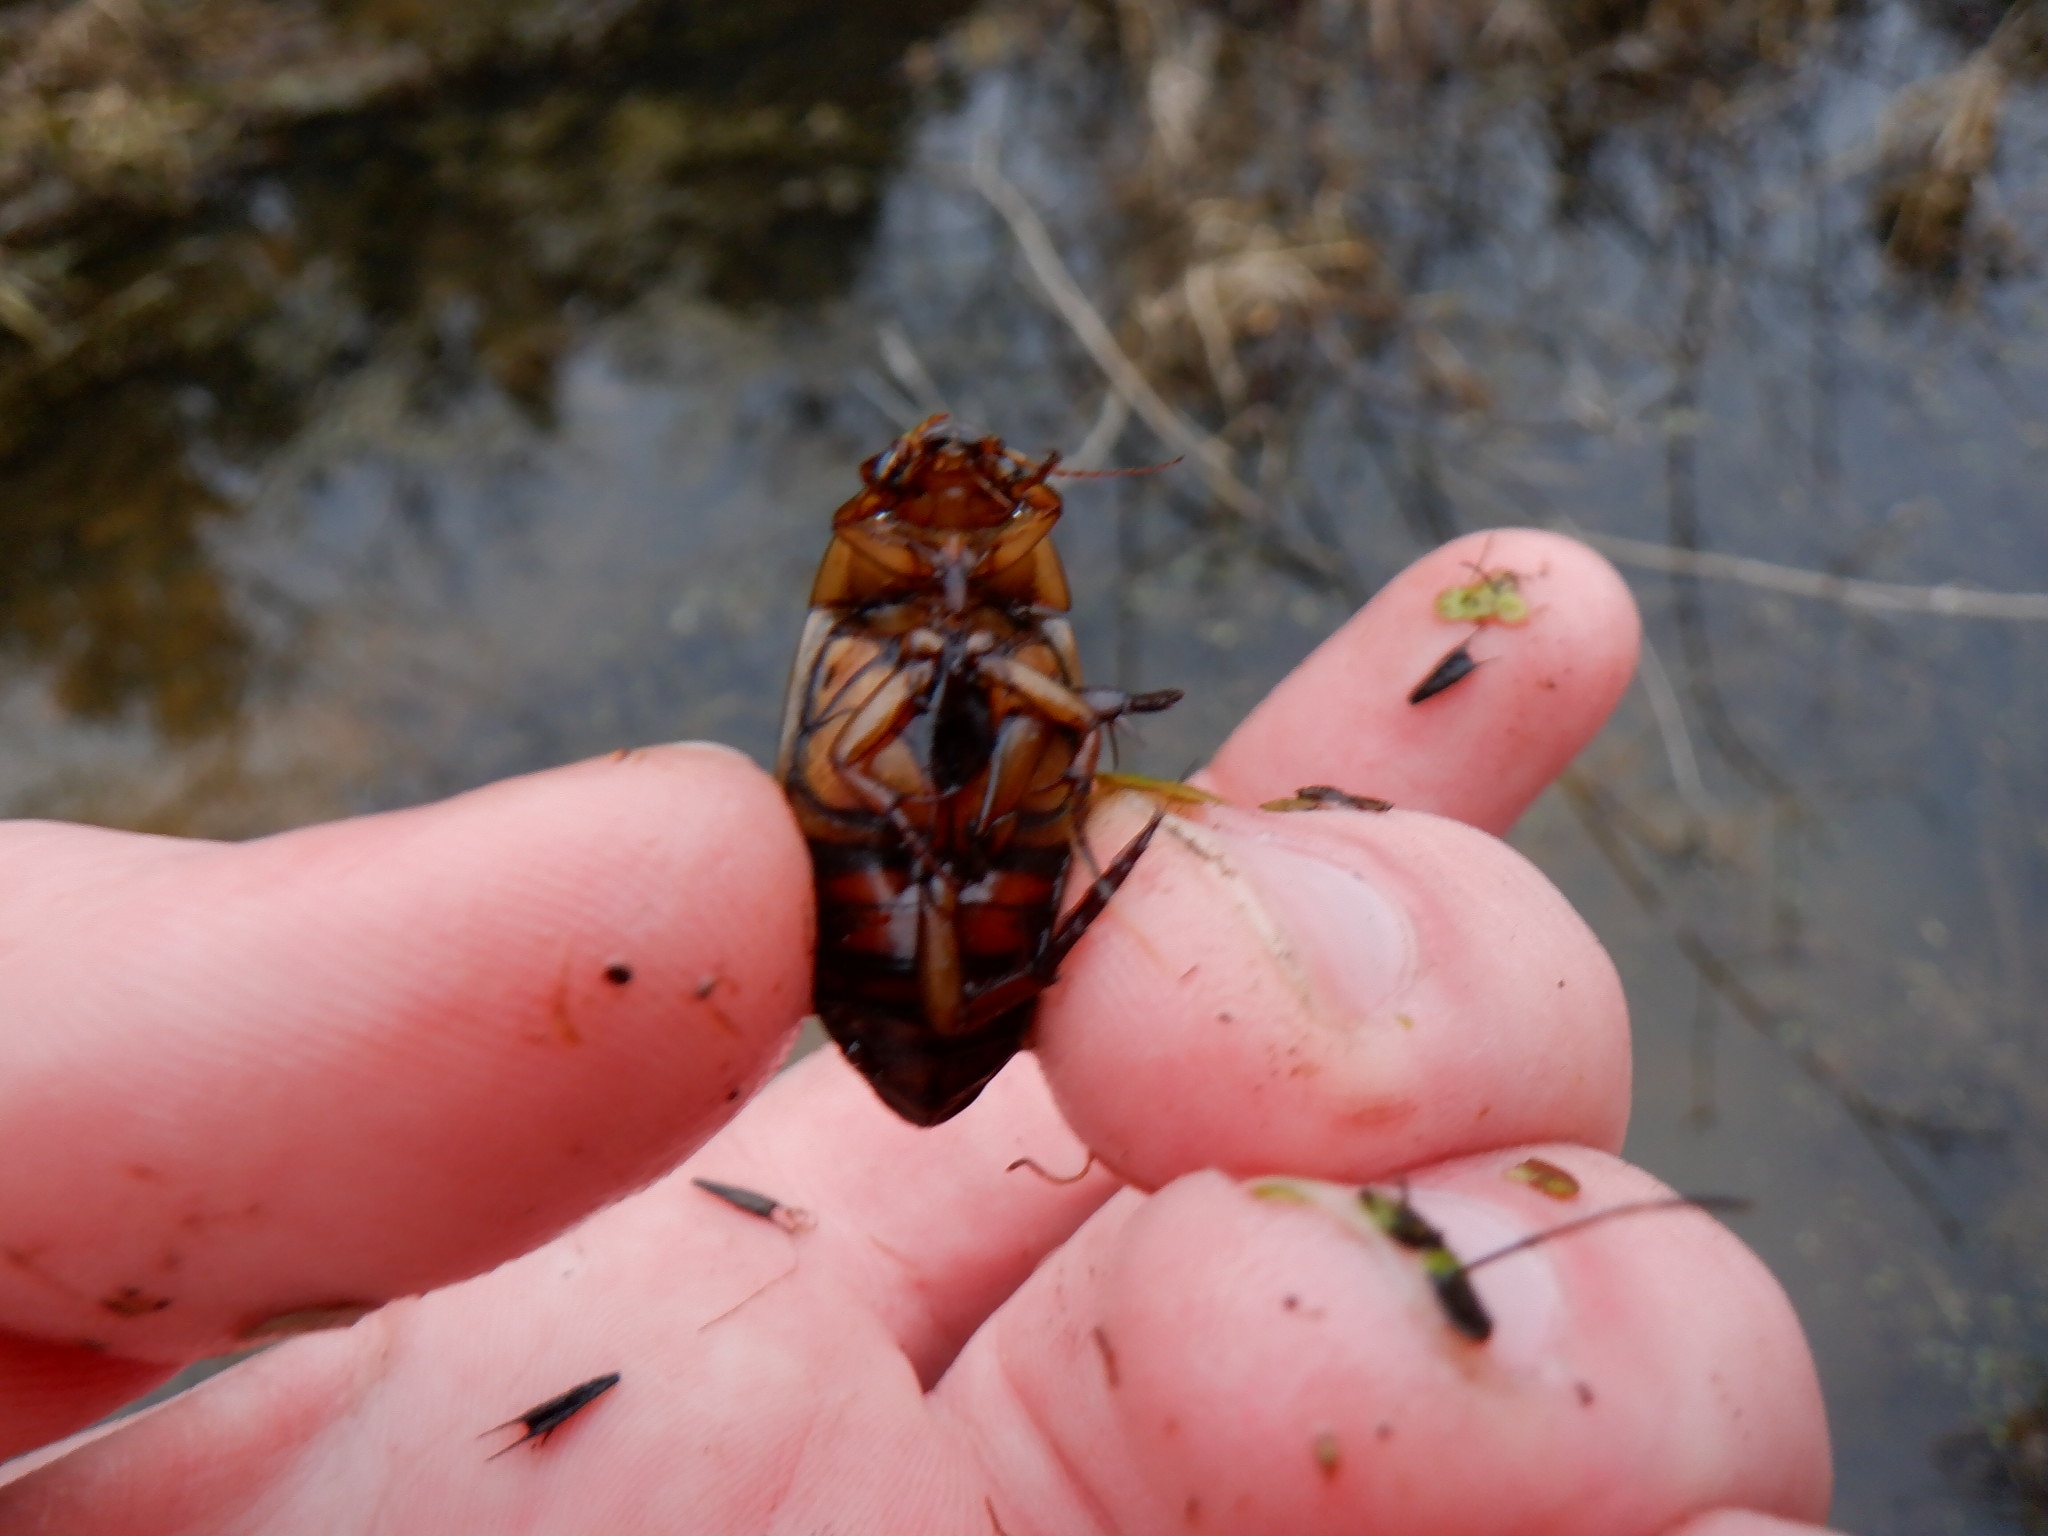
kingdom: Animalia
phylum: Arthropoda
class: Insecta
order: Coleoptera
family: Dytiscidae
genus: Dytiscus
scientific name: Dytiscus fasciventris
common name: Understriped diving beetle
